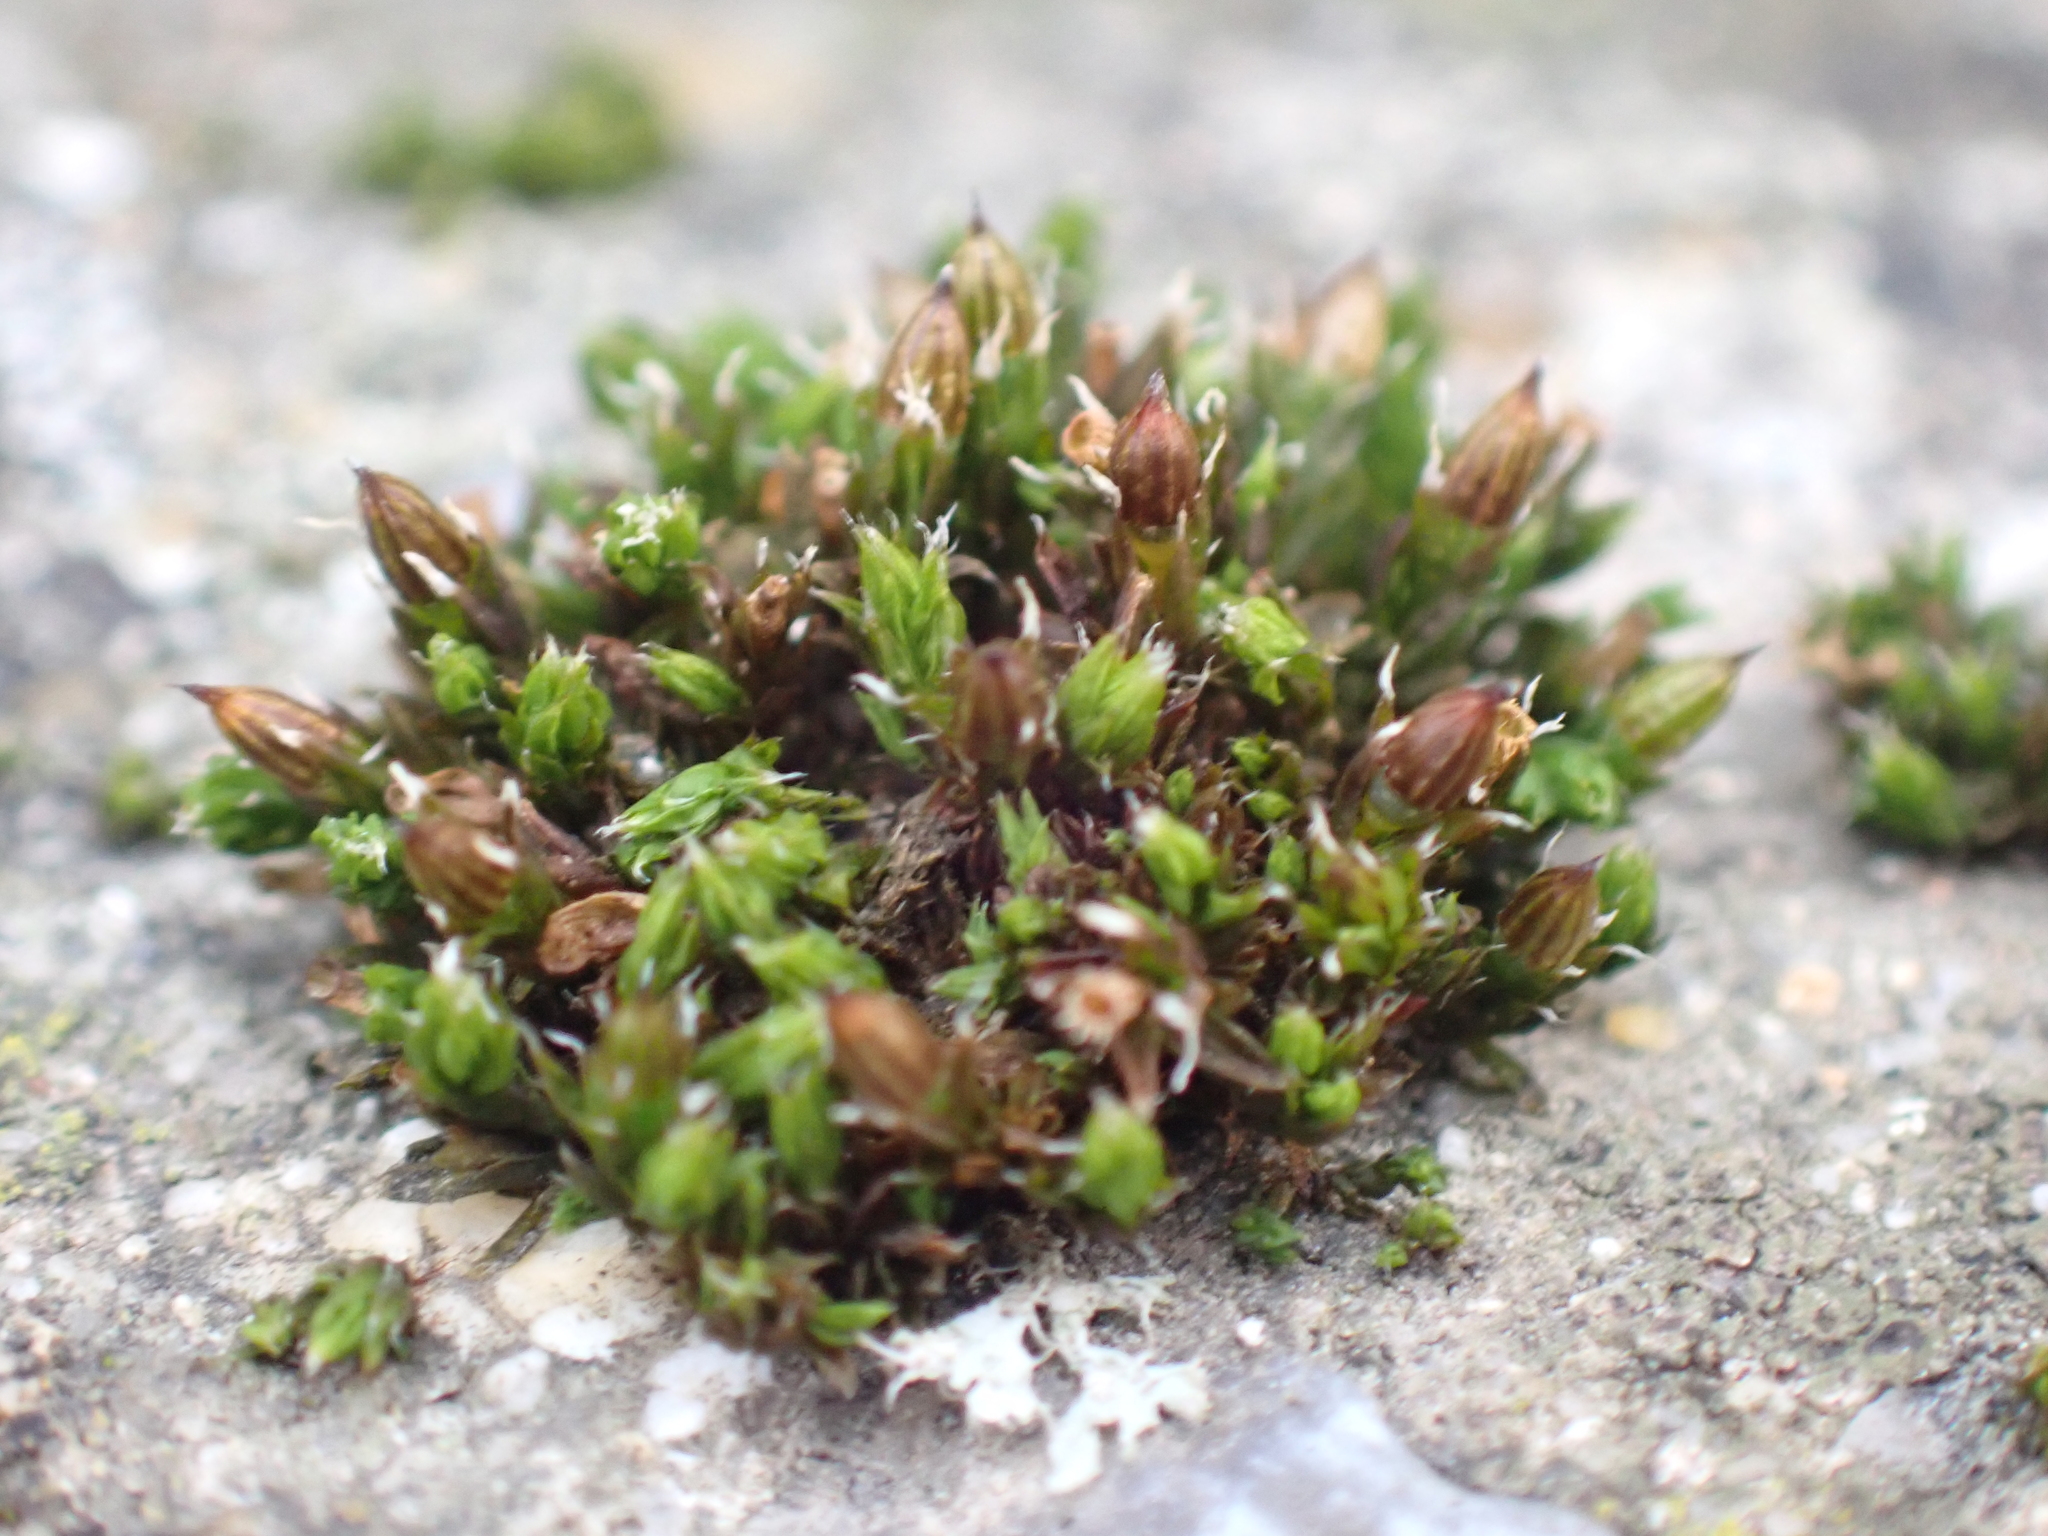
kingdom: Plantae
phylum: Bryophyta
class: Bryopsida
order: Orthotrichales
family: Orthotrichaceae
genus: Orthotrichum
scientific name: Orthotrichum diaphanum
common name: White-tipped bristle-moss
